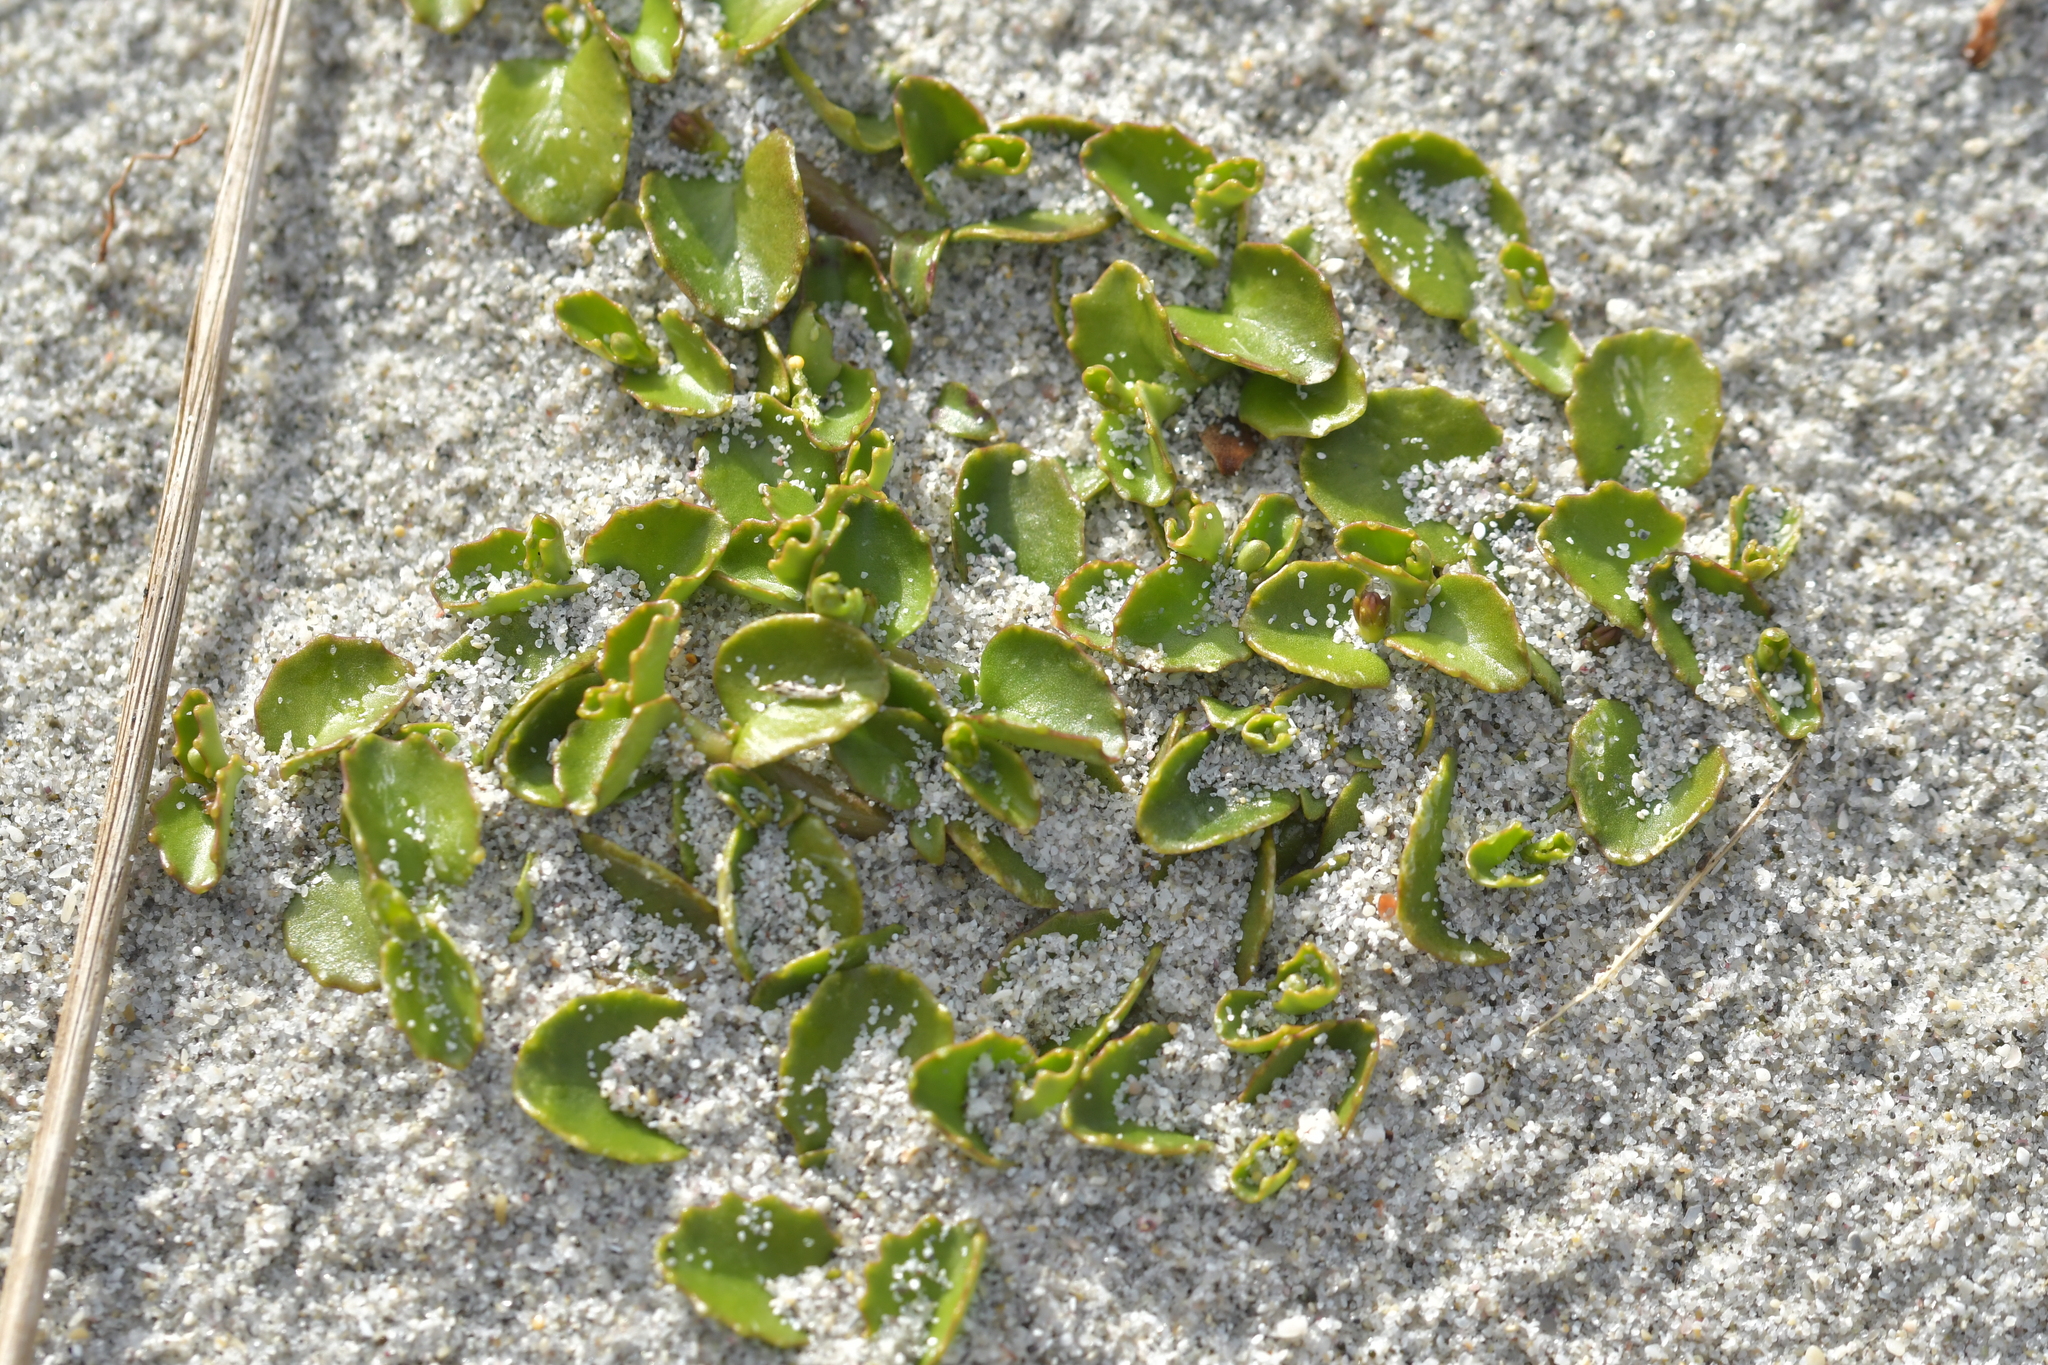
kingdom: Plantae
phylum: Tracheophyta
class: Magnoliopsida
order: Asterales
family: Campanulaceae
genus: Lobelia
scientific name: Lobelia arenaria
